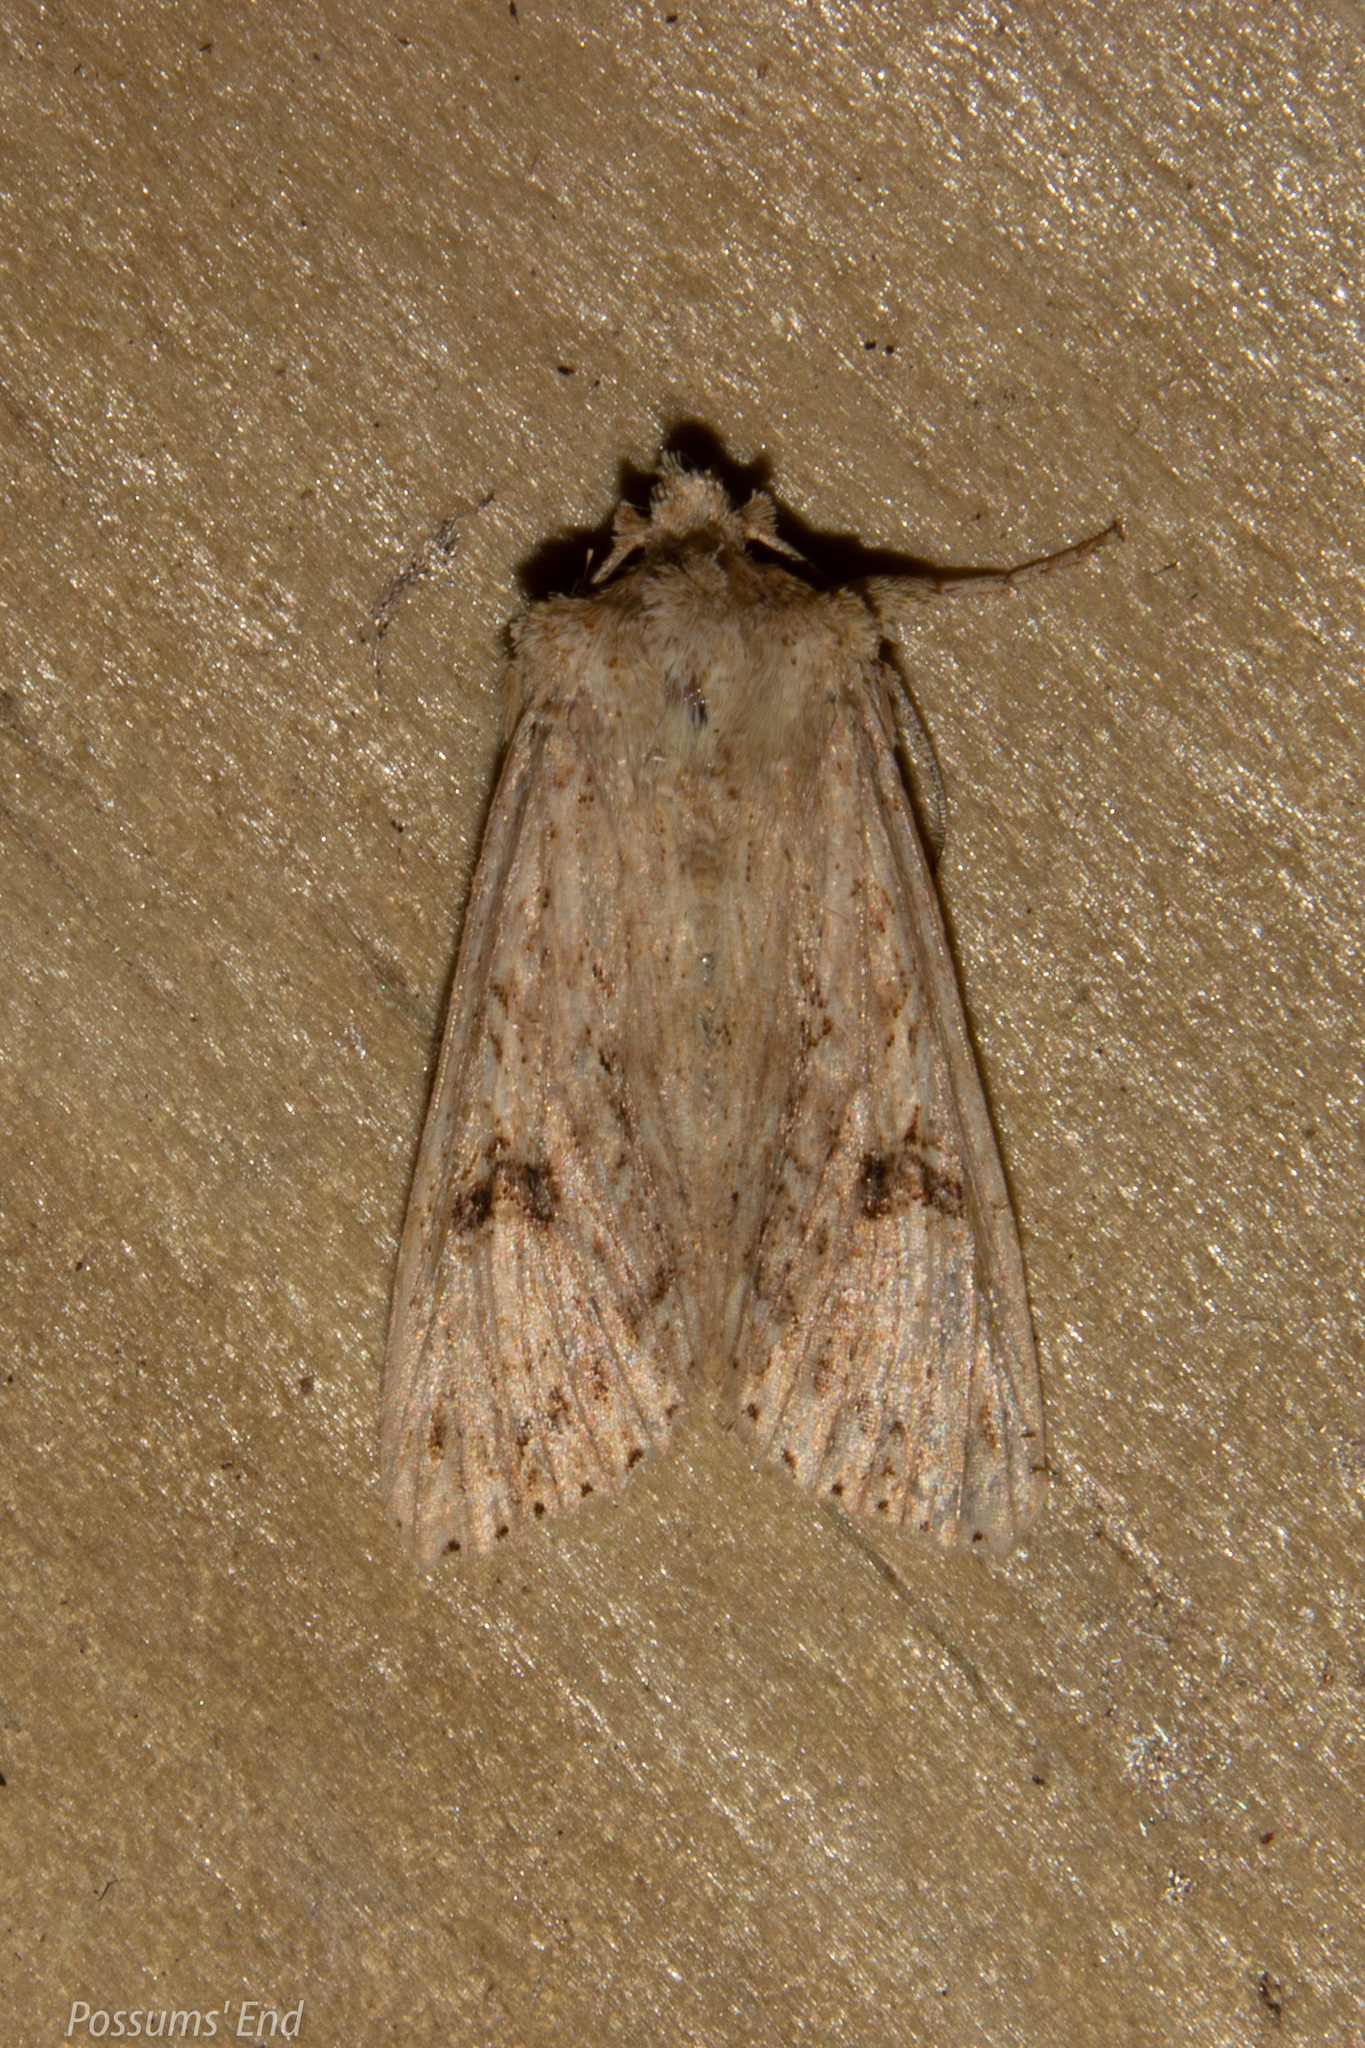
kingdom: Animalia
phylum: Arthropoda
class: Insecta
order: Lepidoptera
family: Noctuidae
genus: Ichneutica
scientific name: Ichneutica
